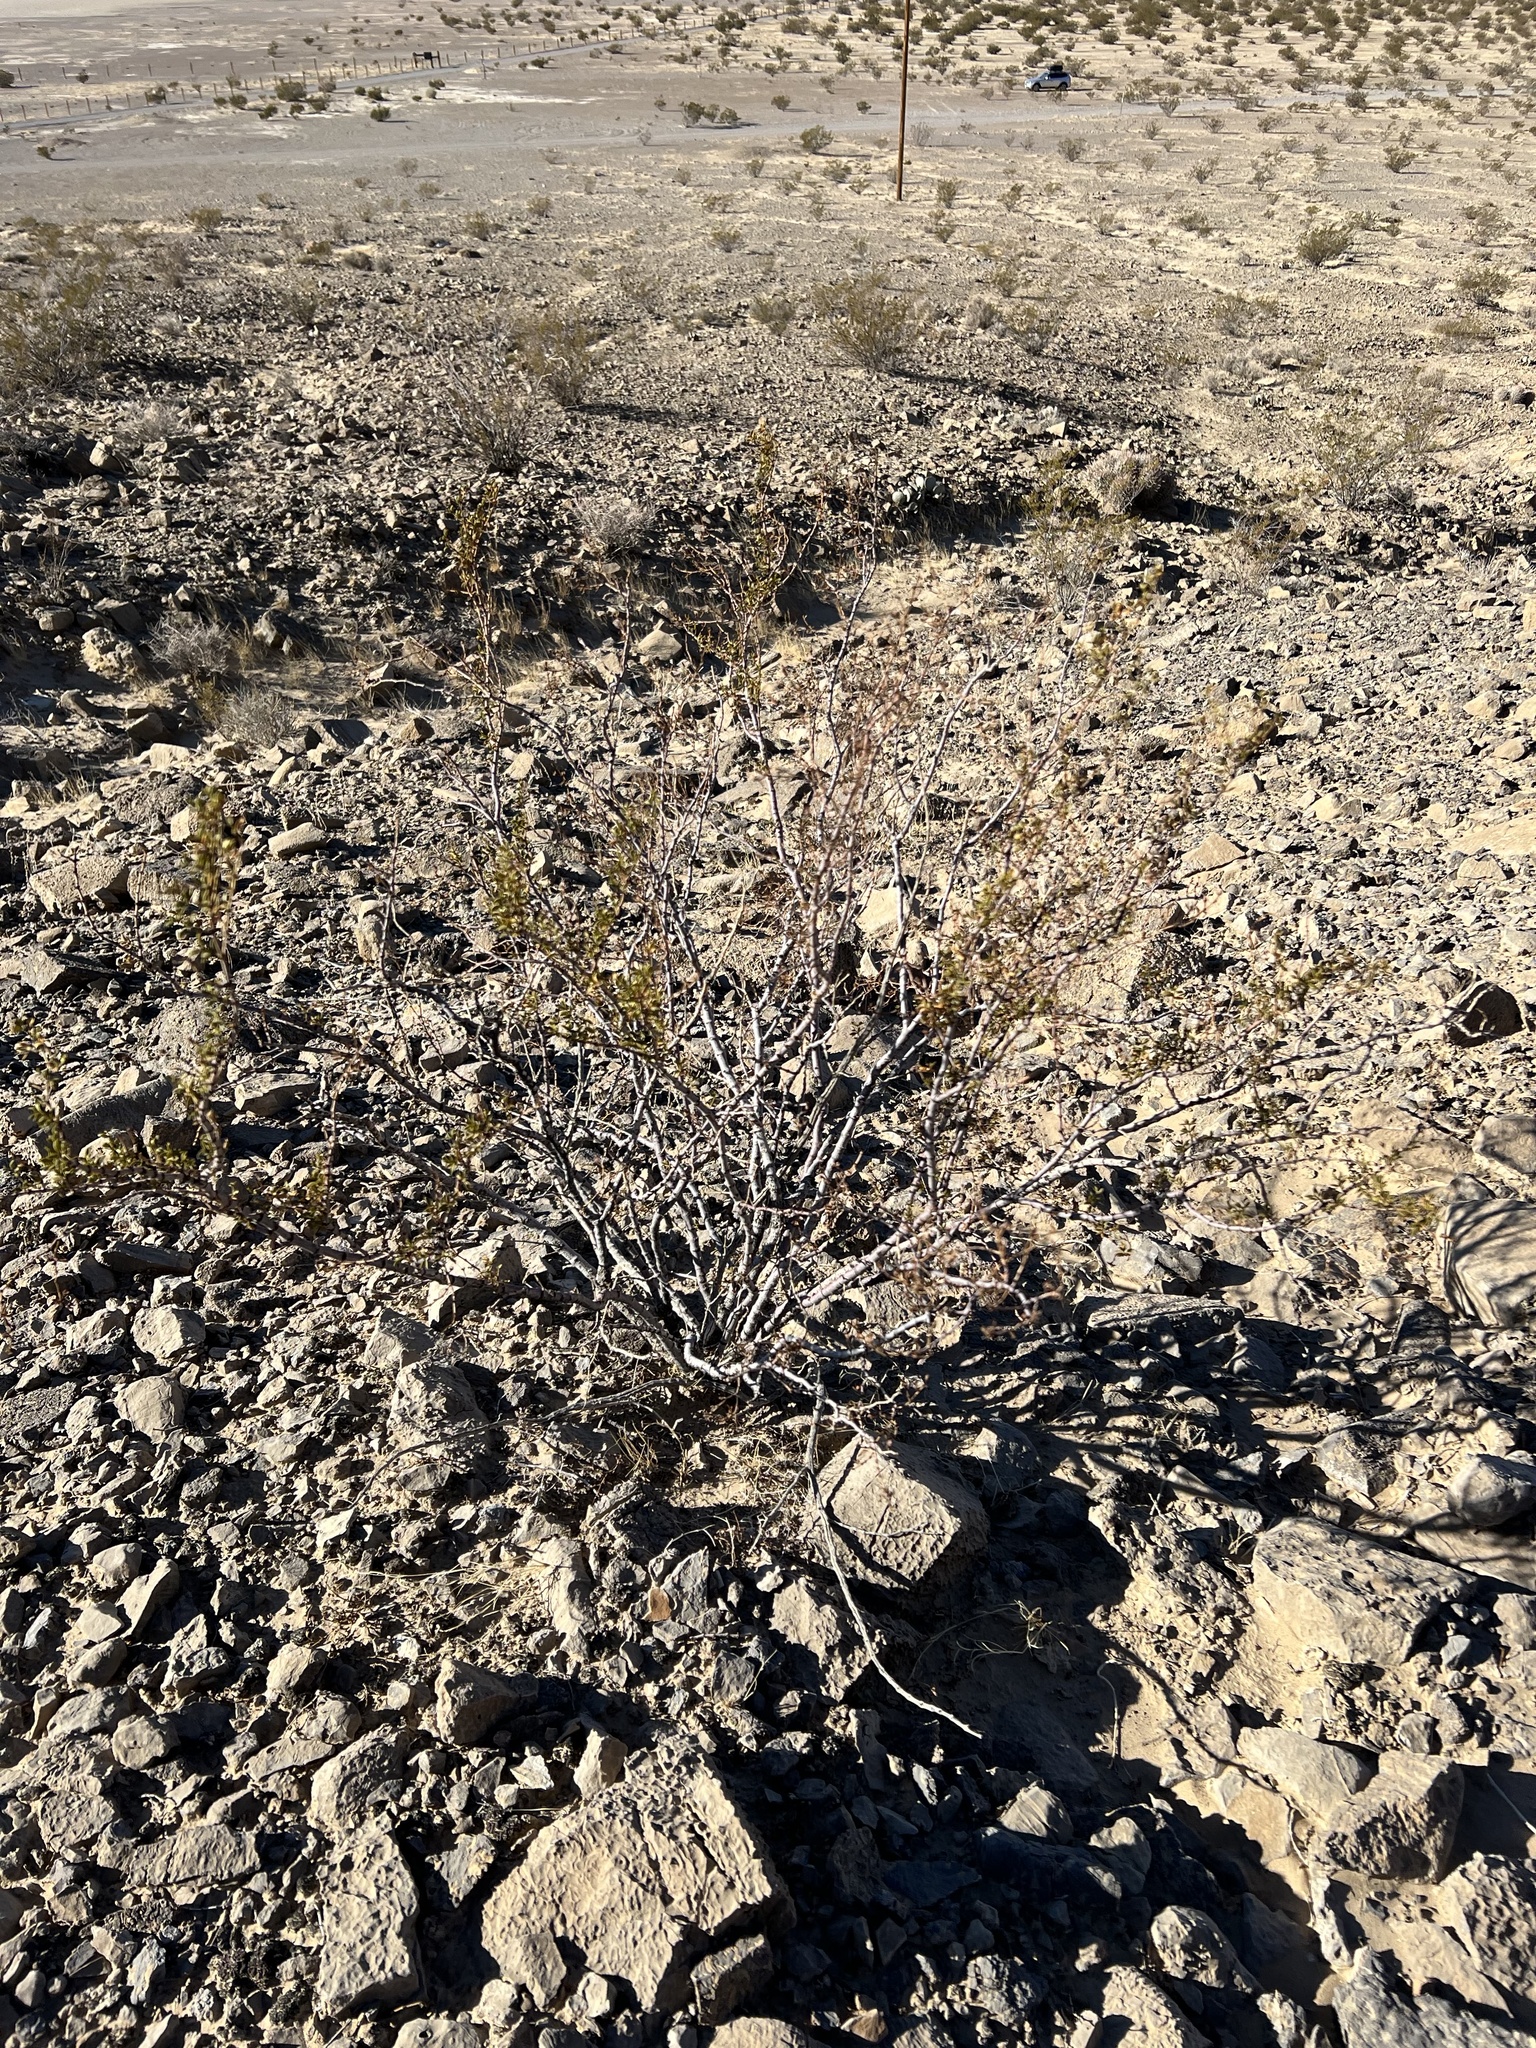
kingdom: Plantae
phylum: Tracheophyta
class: Magnoliopsida
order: Zygophyllales
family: Zygophyllaceae
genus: Larrea
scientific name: Larrea tridentata
